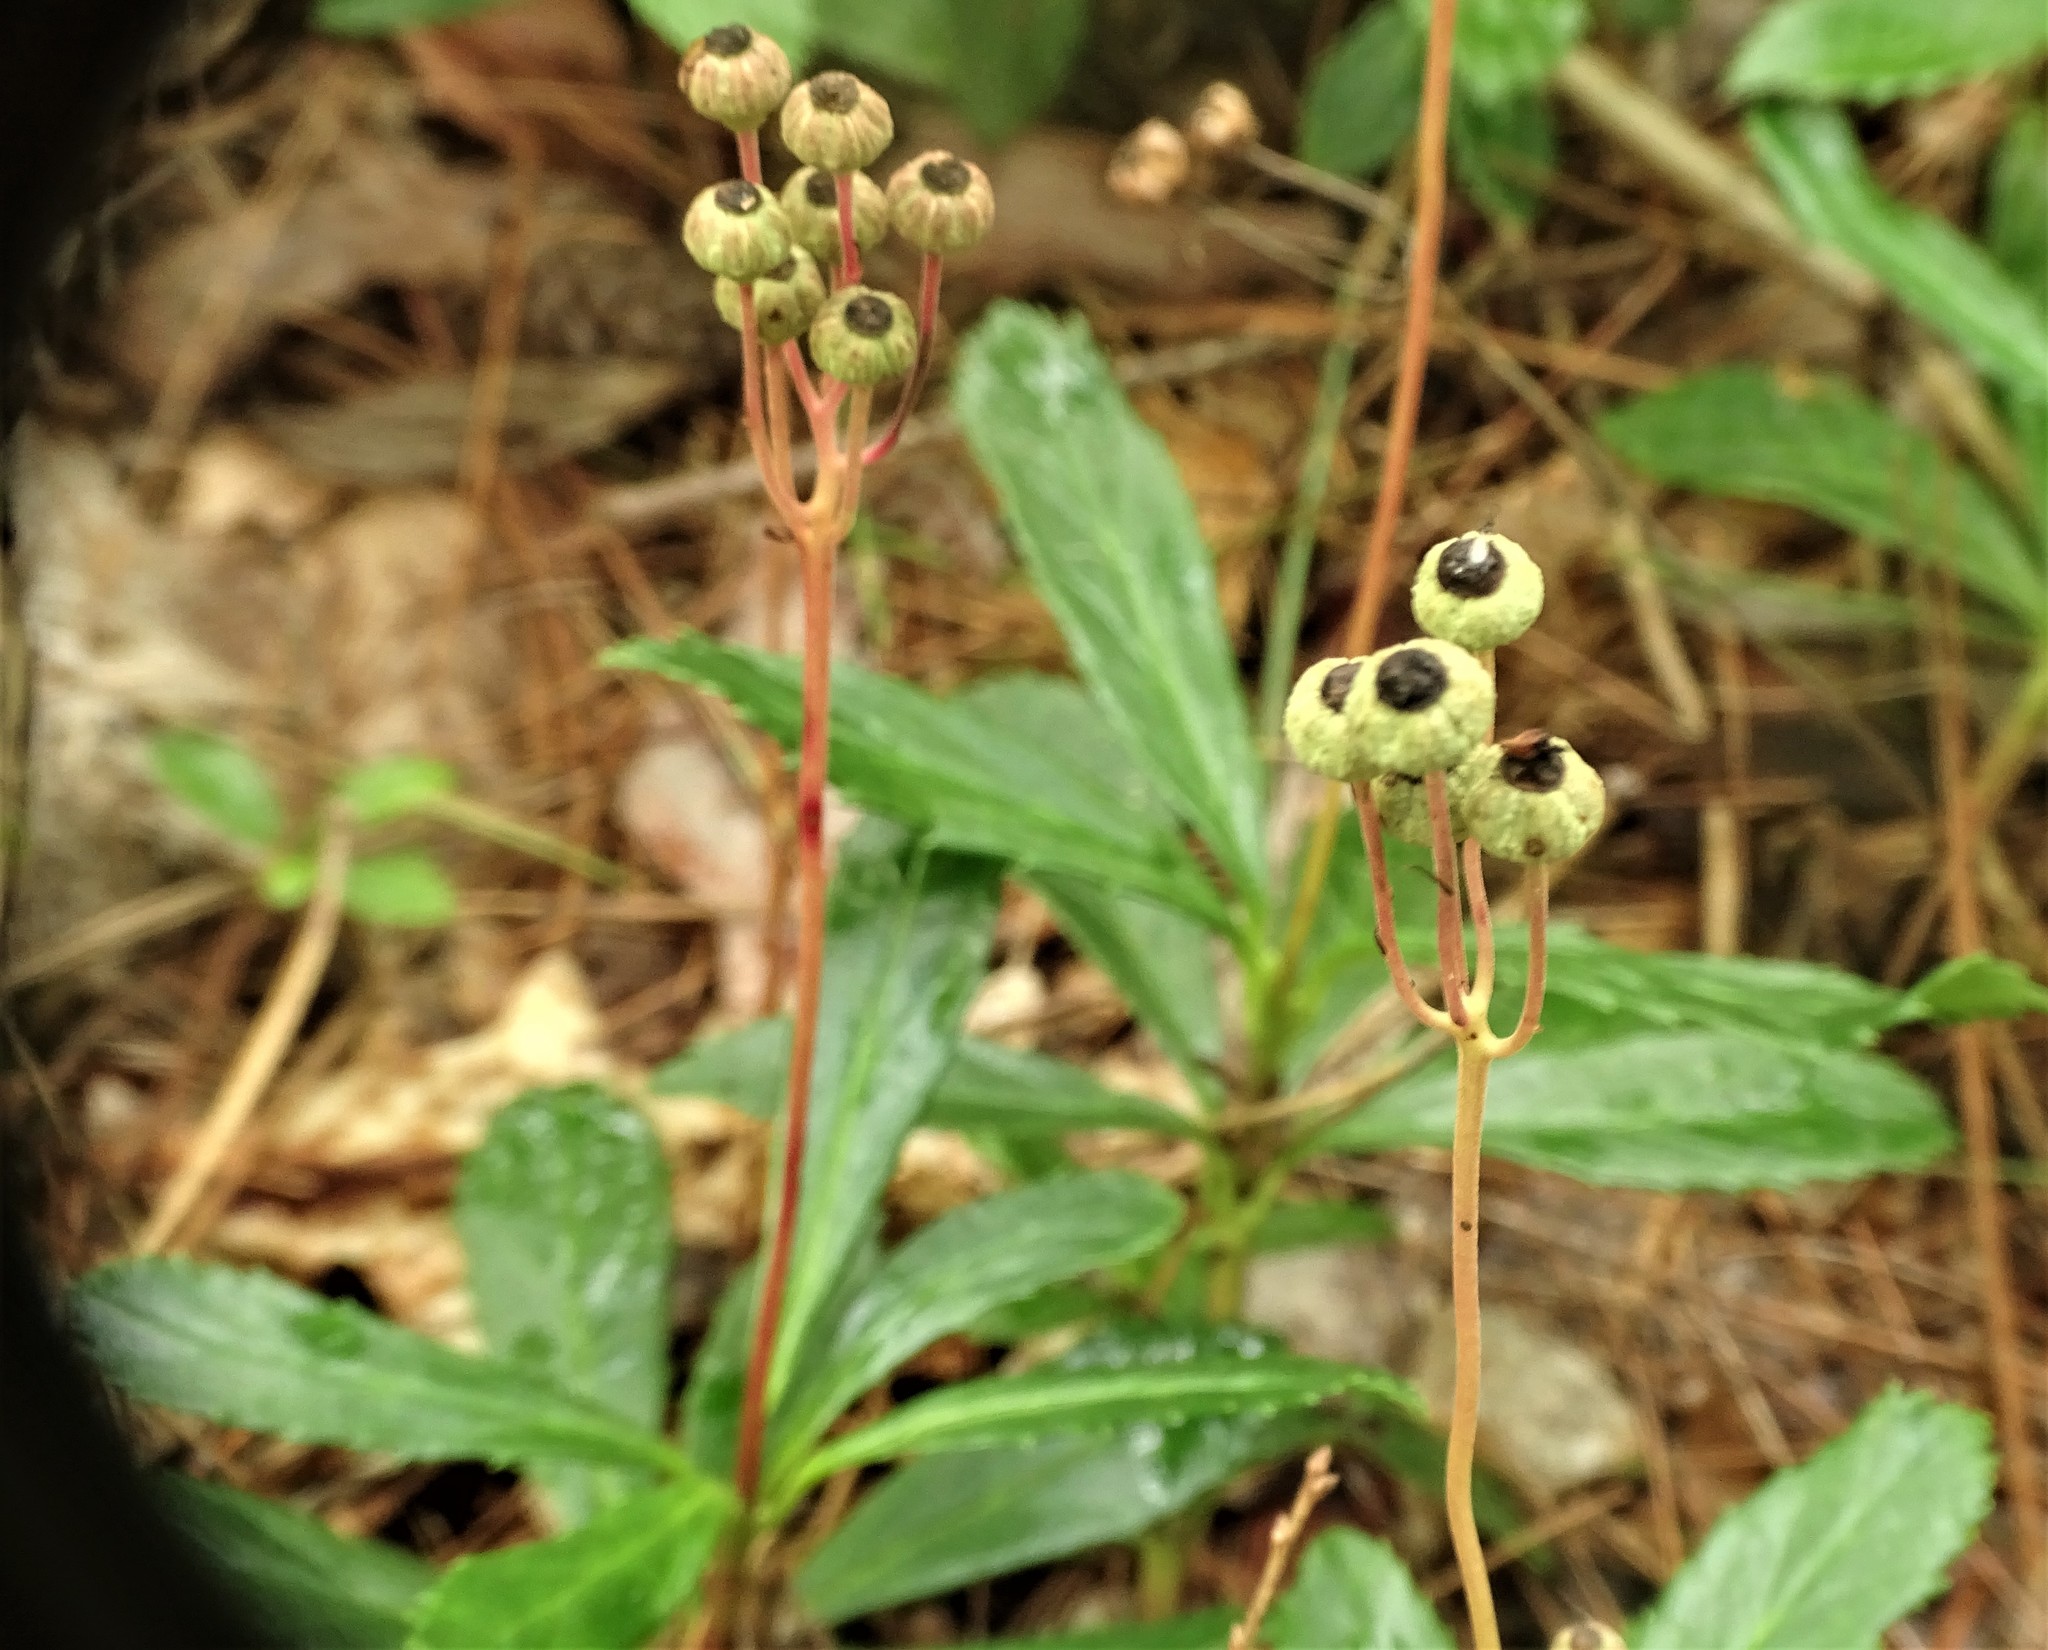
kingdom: Plantae
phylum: Tracheophyta
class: Magnoliopsida
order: Ericales
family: Ericaceae
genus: Chimaphila
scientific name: Chimaphila umbellata
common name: Pipsissewa
